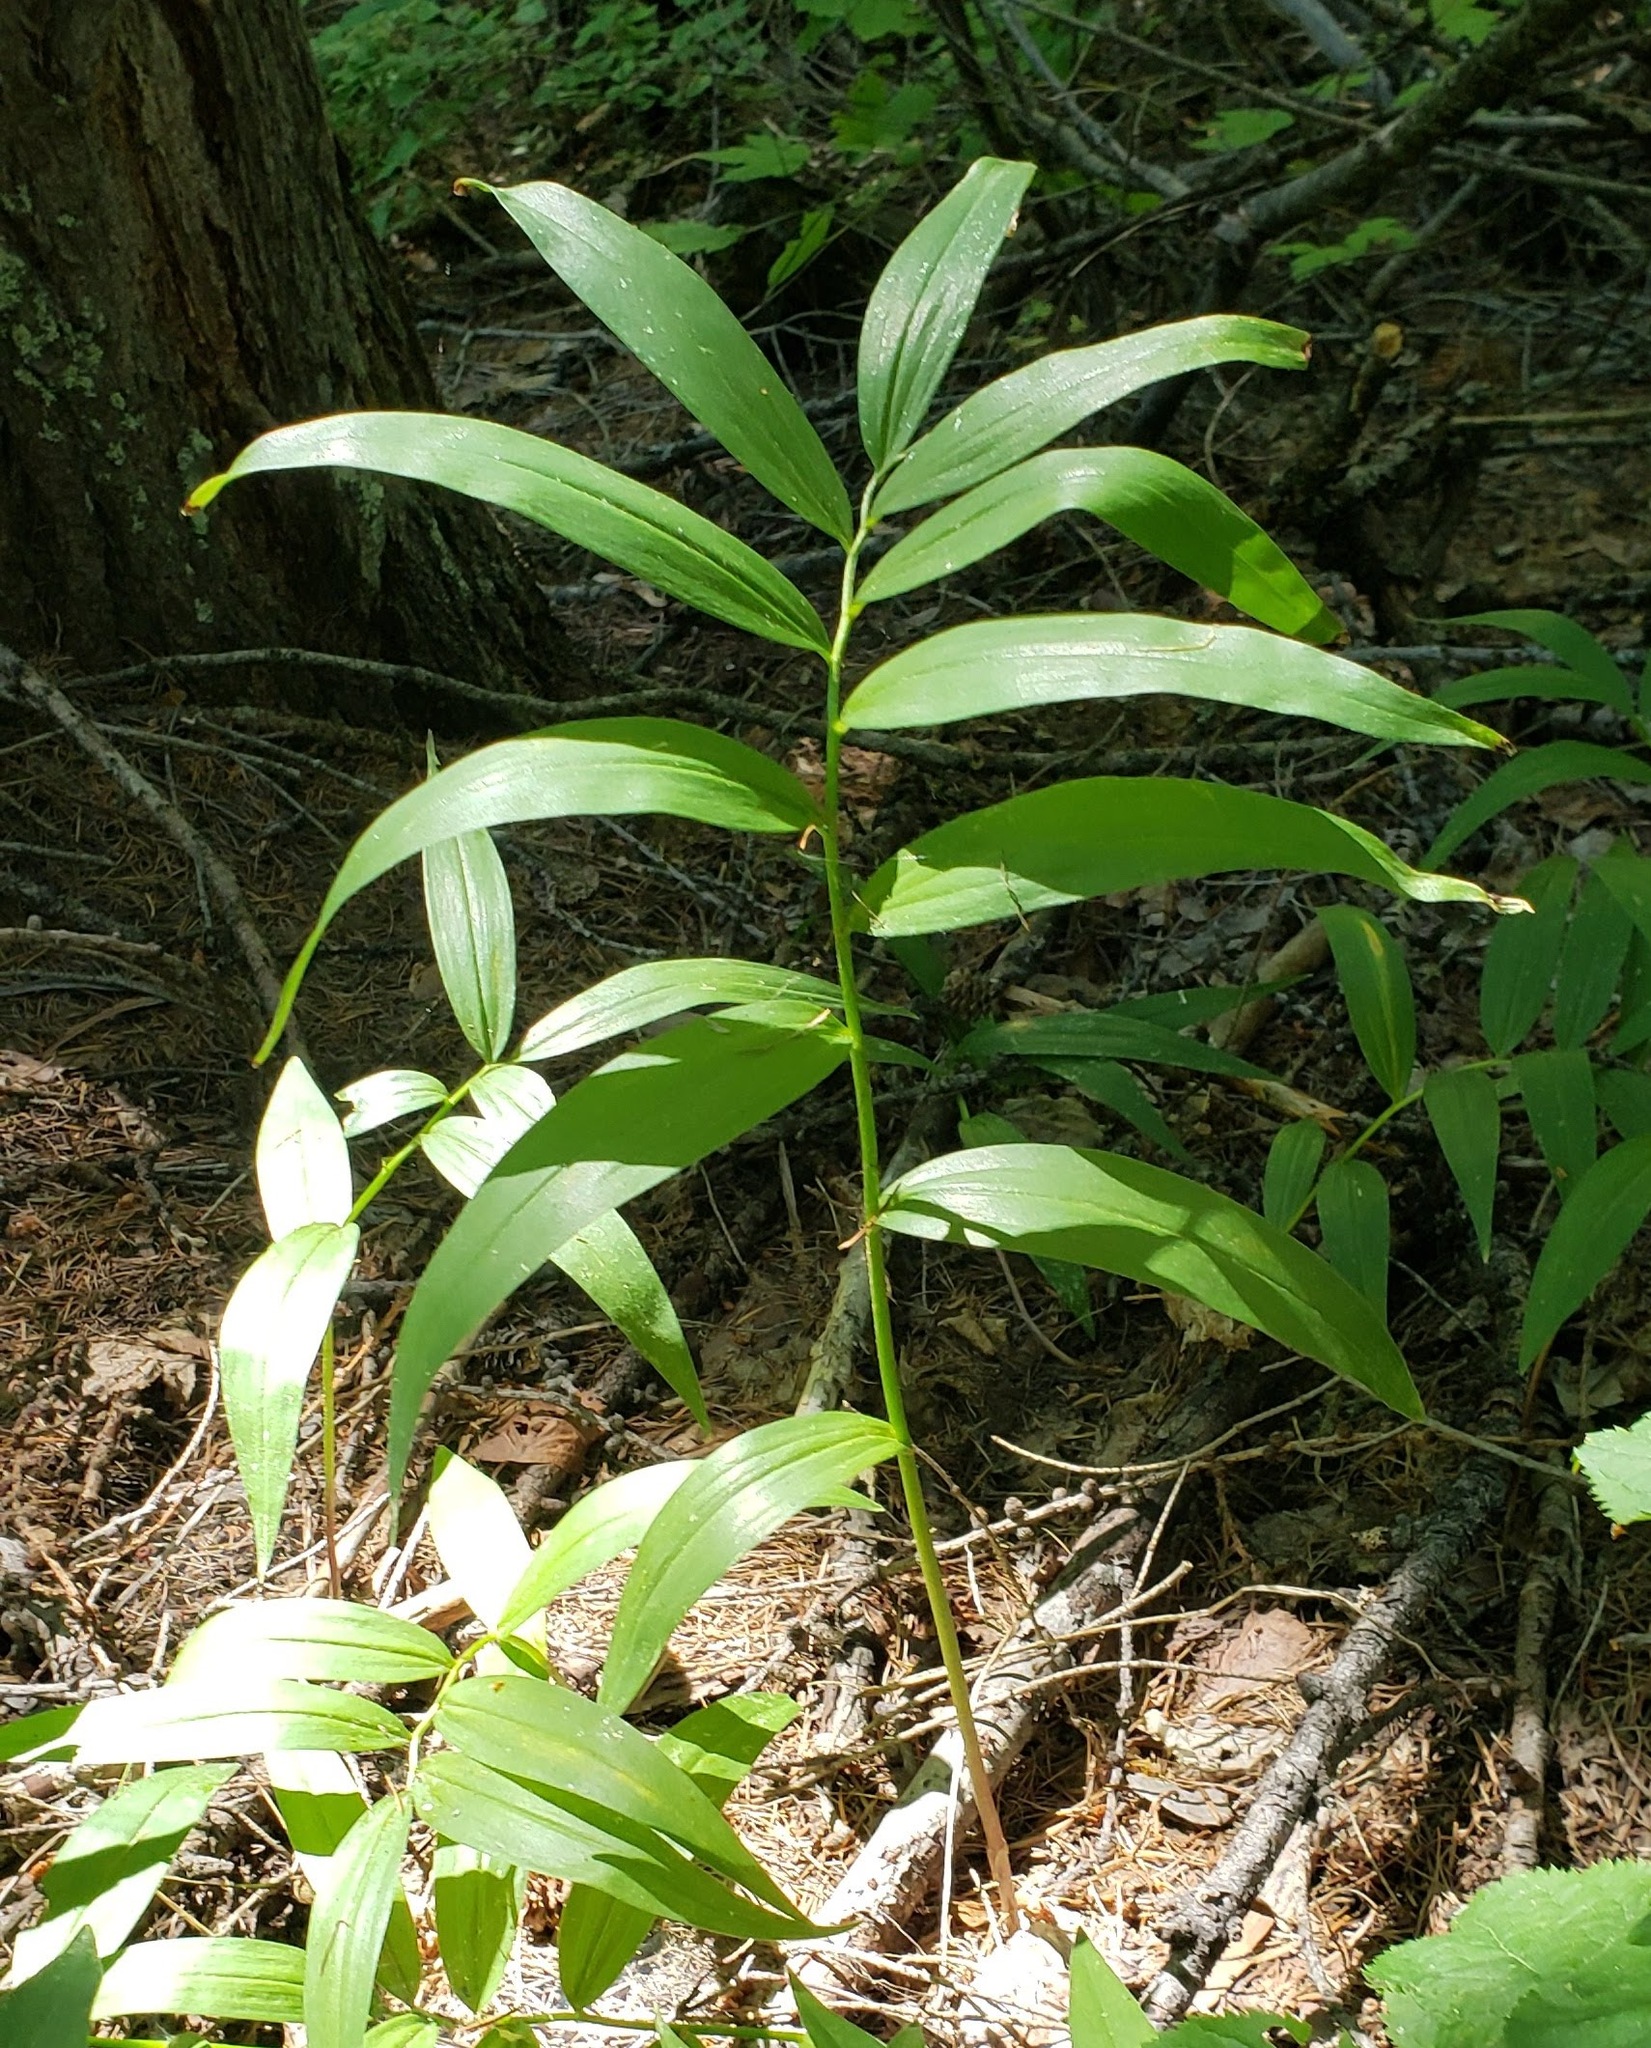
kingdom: Plantae
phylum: Tracheophyta
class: Liliopsida
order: Asparagales
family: Asparagaceae
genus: Maianthemum
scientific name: Maianthemum stellatum
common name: Little false solomon's seal
